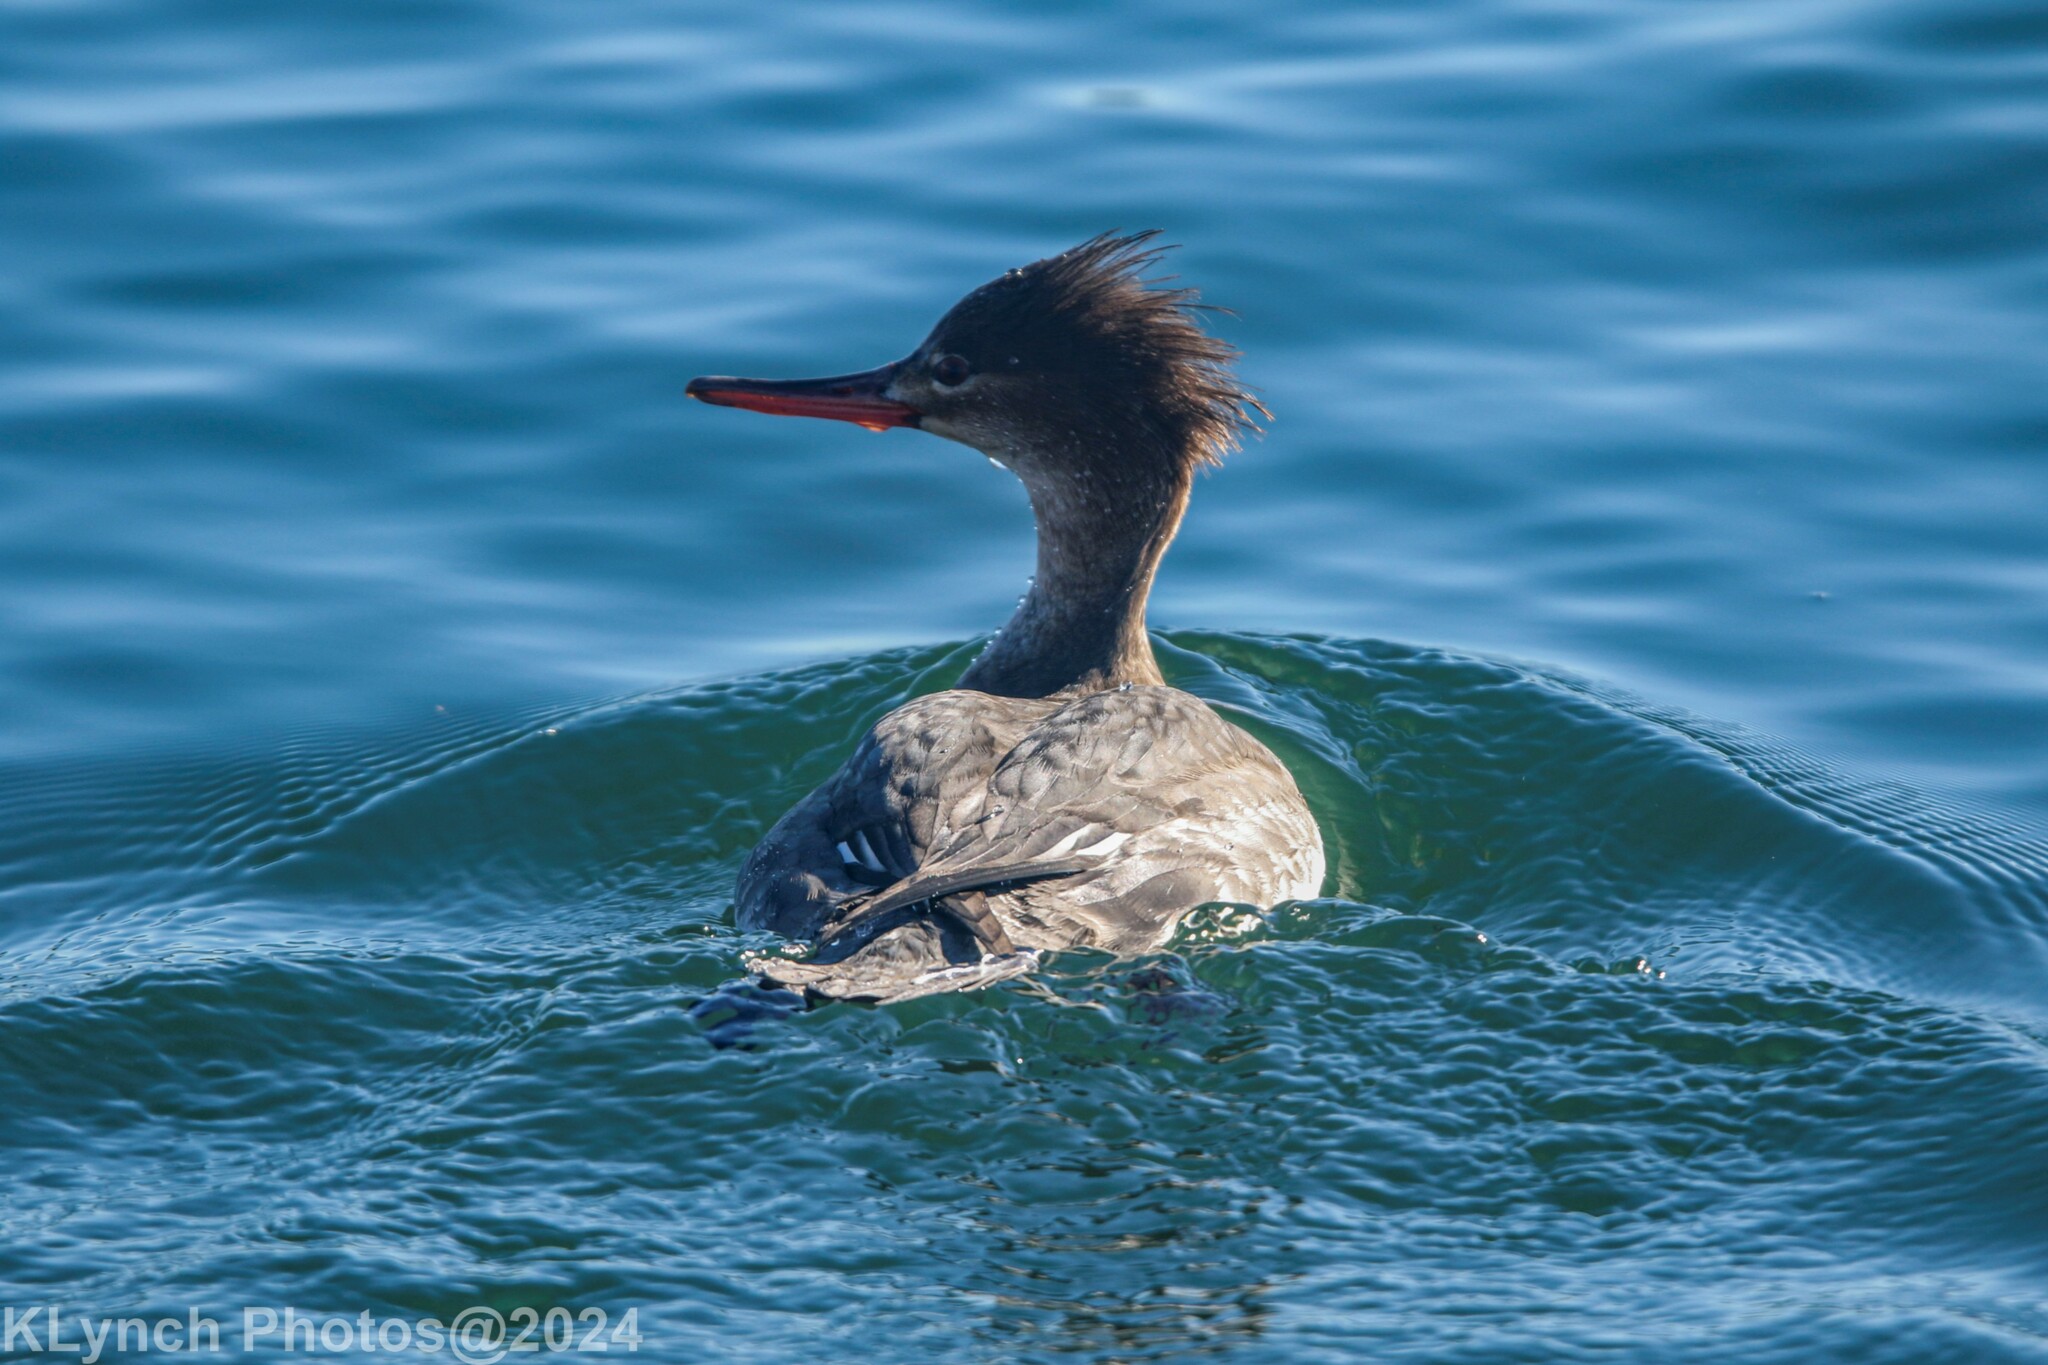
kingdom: Animalia
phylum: Chordata
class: Aves
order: Anseriformes
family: Anatidae
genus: Mergus
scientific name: Mergus serrator
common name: Red-breasted merganser
